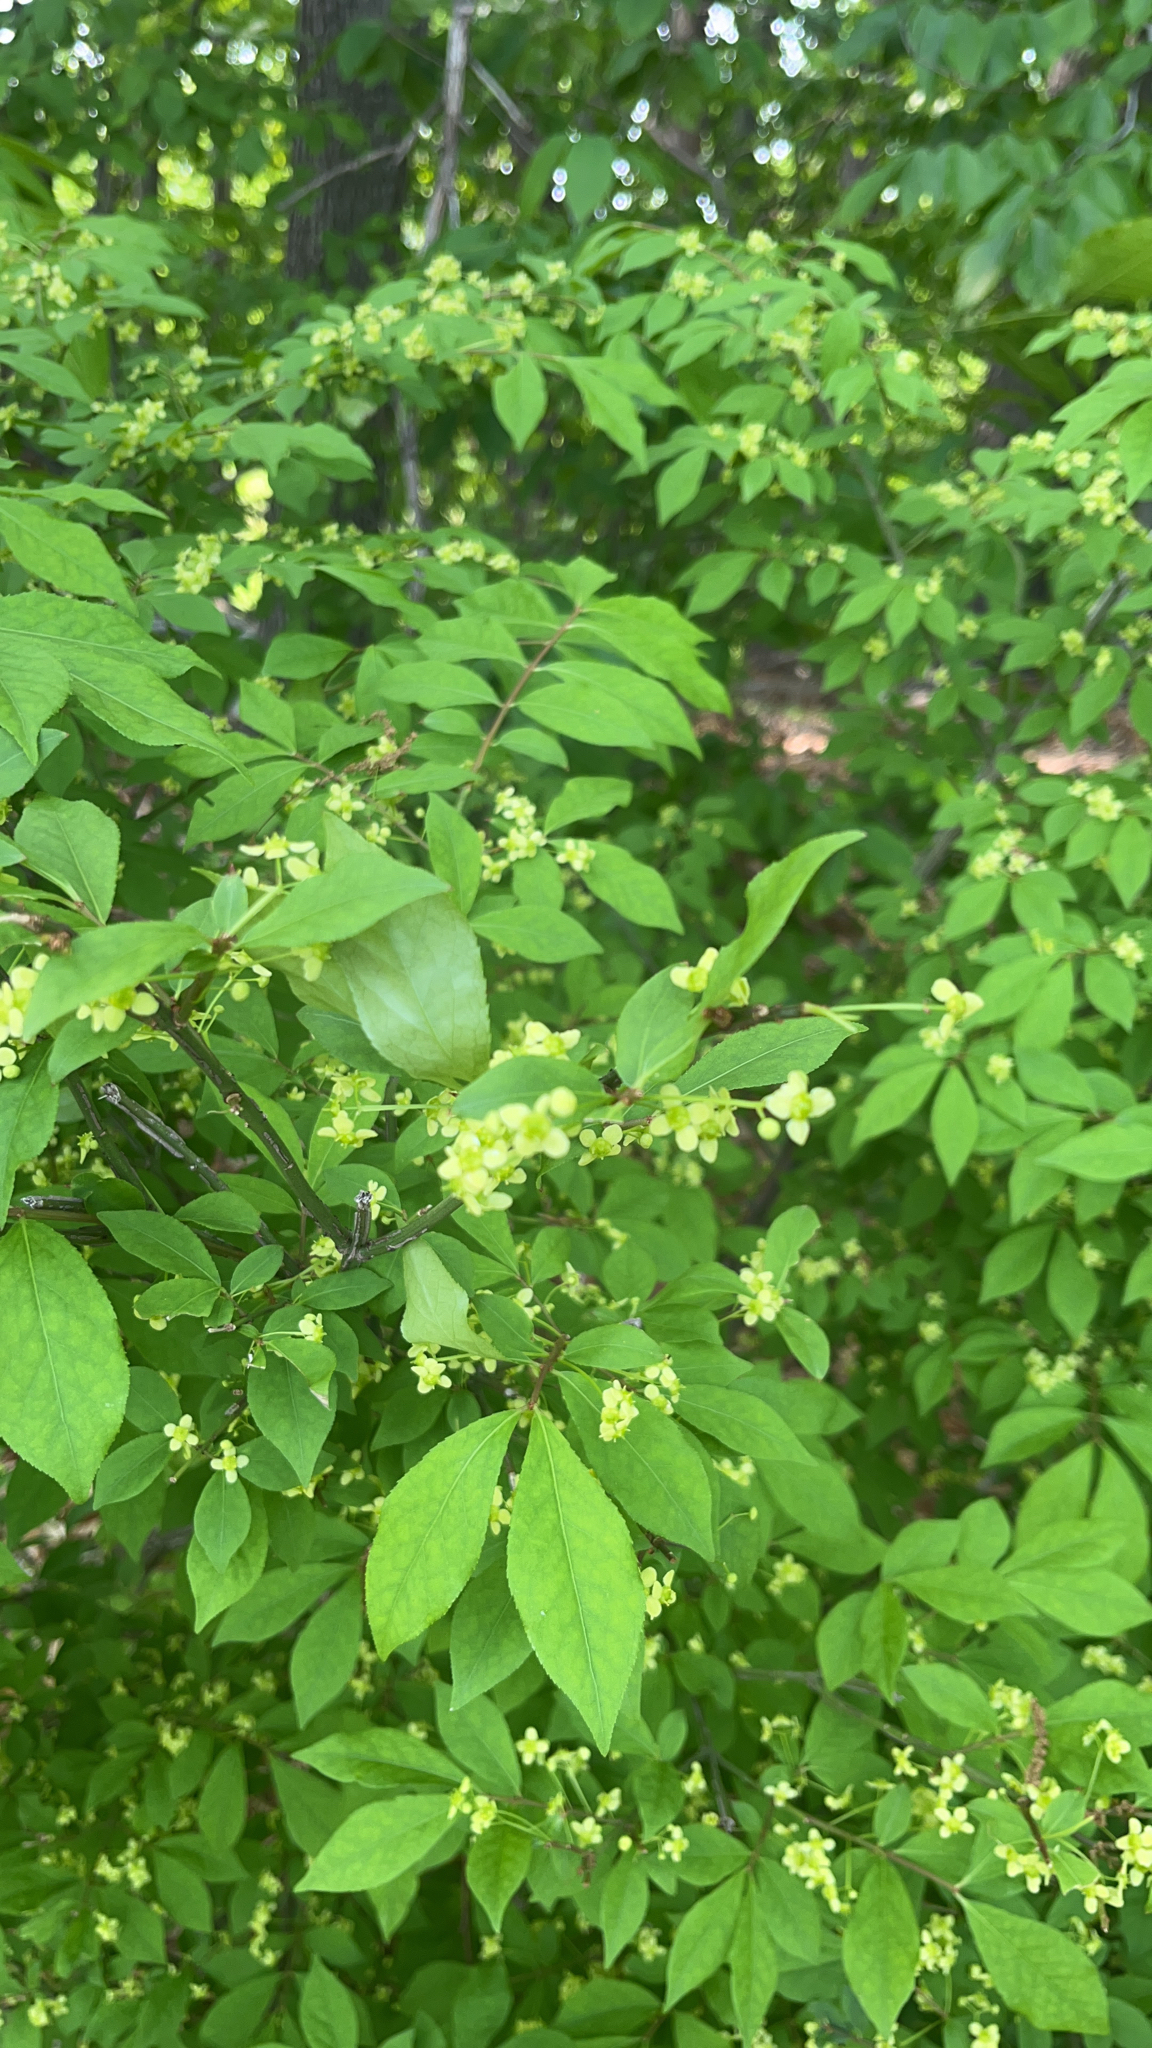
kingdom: Plantae
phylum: Tracheophyta
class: Magnoliopsida
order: Celastrales
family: Celastraceae
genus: Euonymus
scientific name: Euonymus alatus
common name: Winged euonymus
